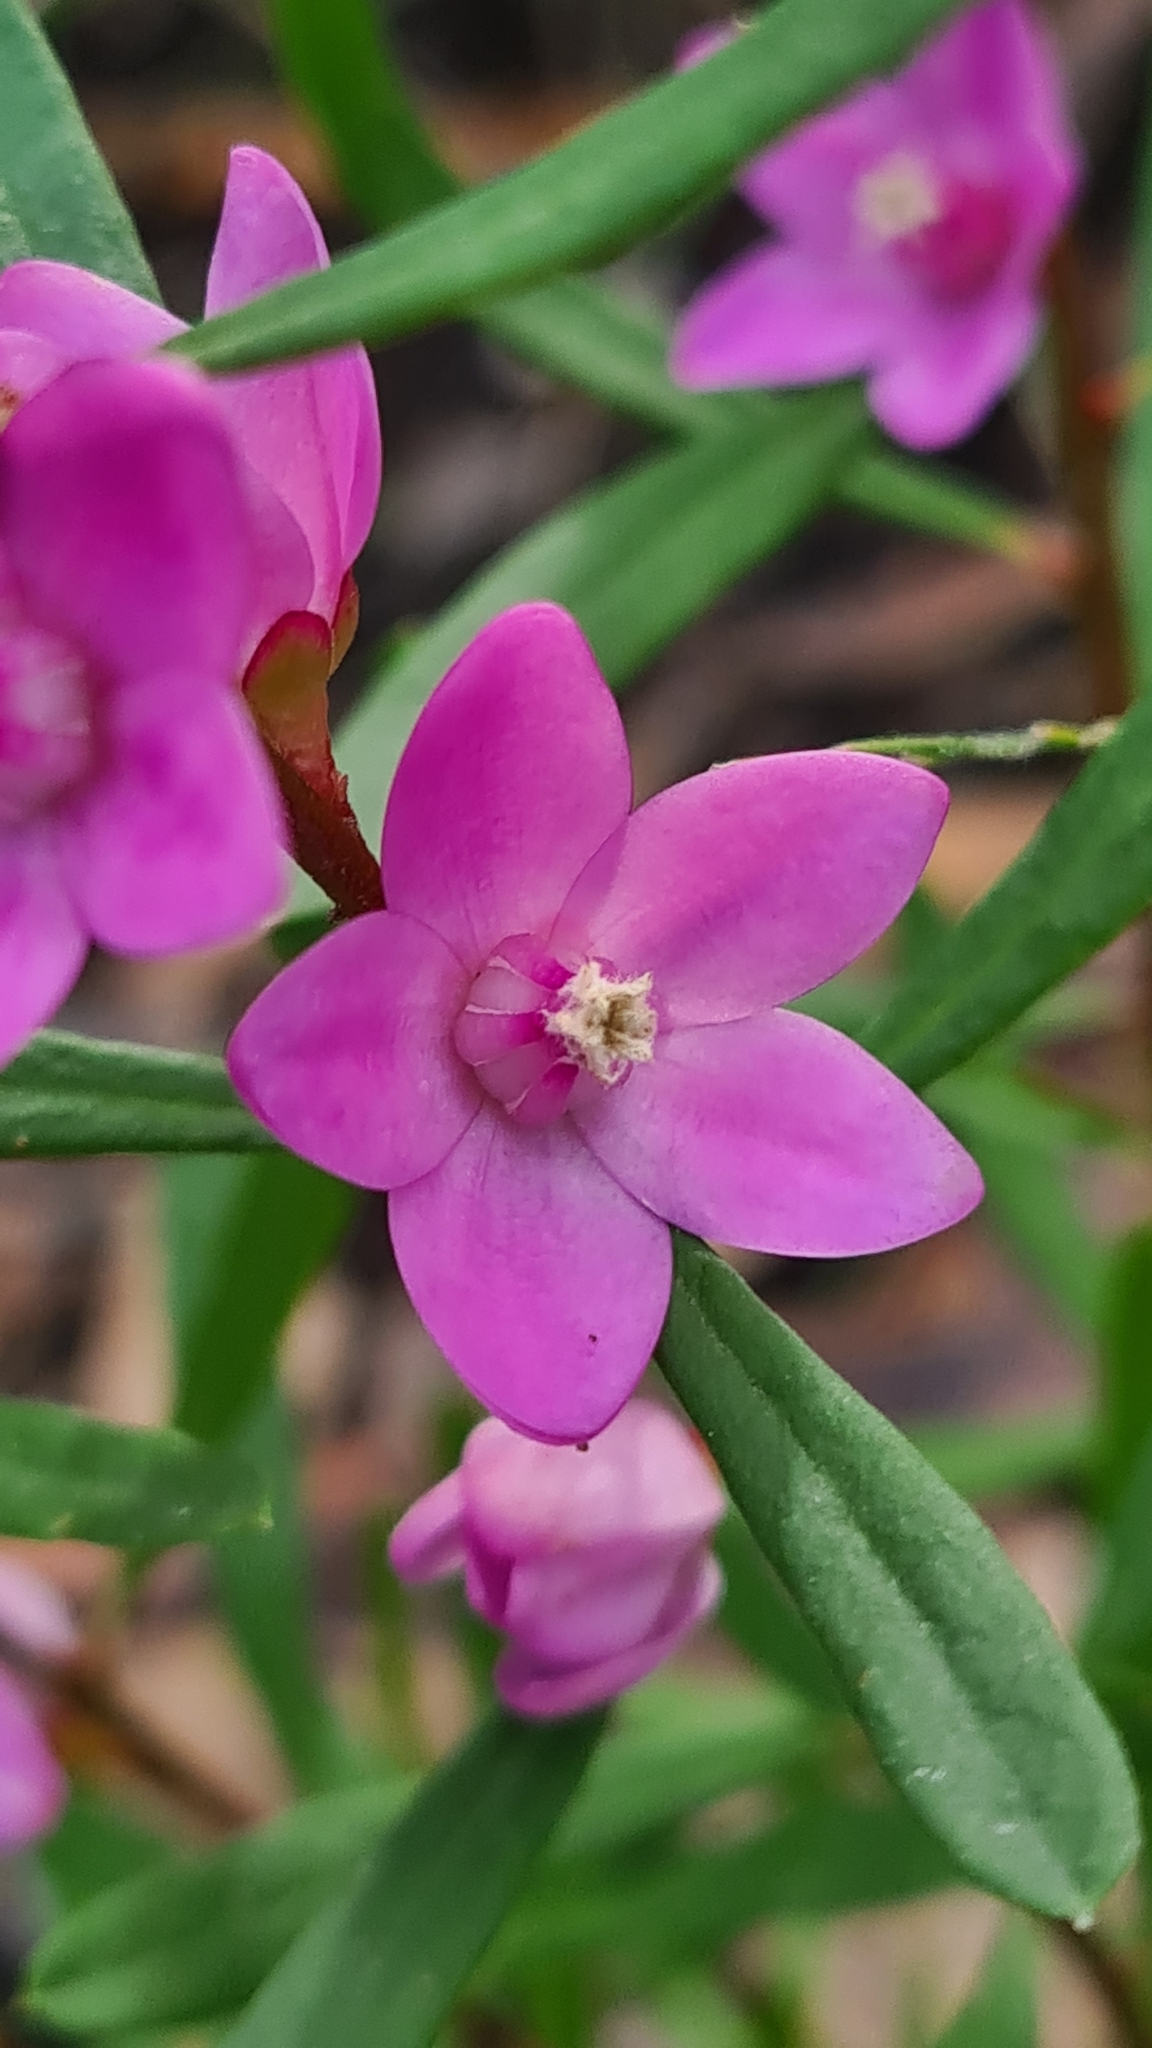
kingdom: Plantae
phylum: Tracheophyta
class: Magnoliopsida
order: Sapindales
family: Rutaceae
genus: Crowea
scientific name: Crowea exalata
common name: Small crowea
